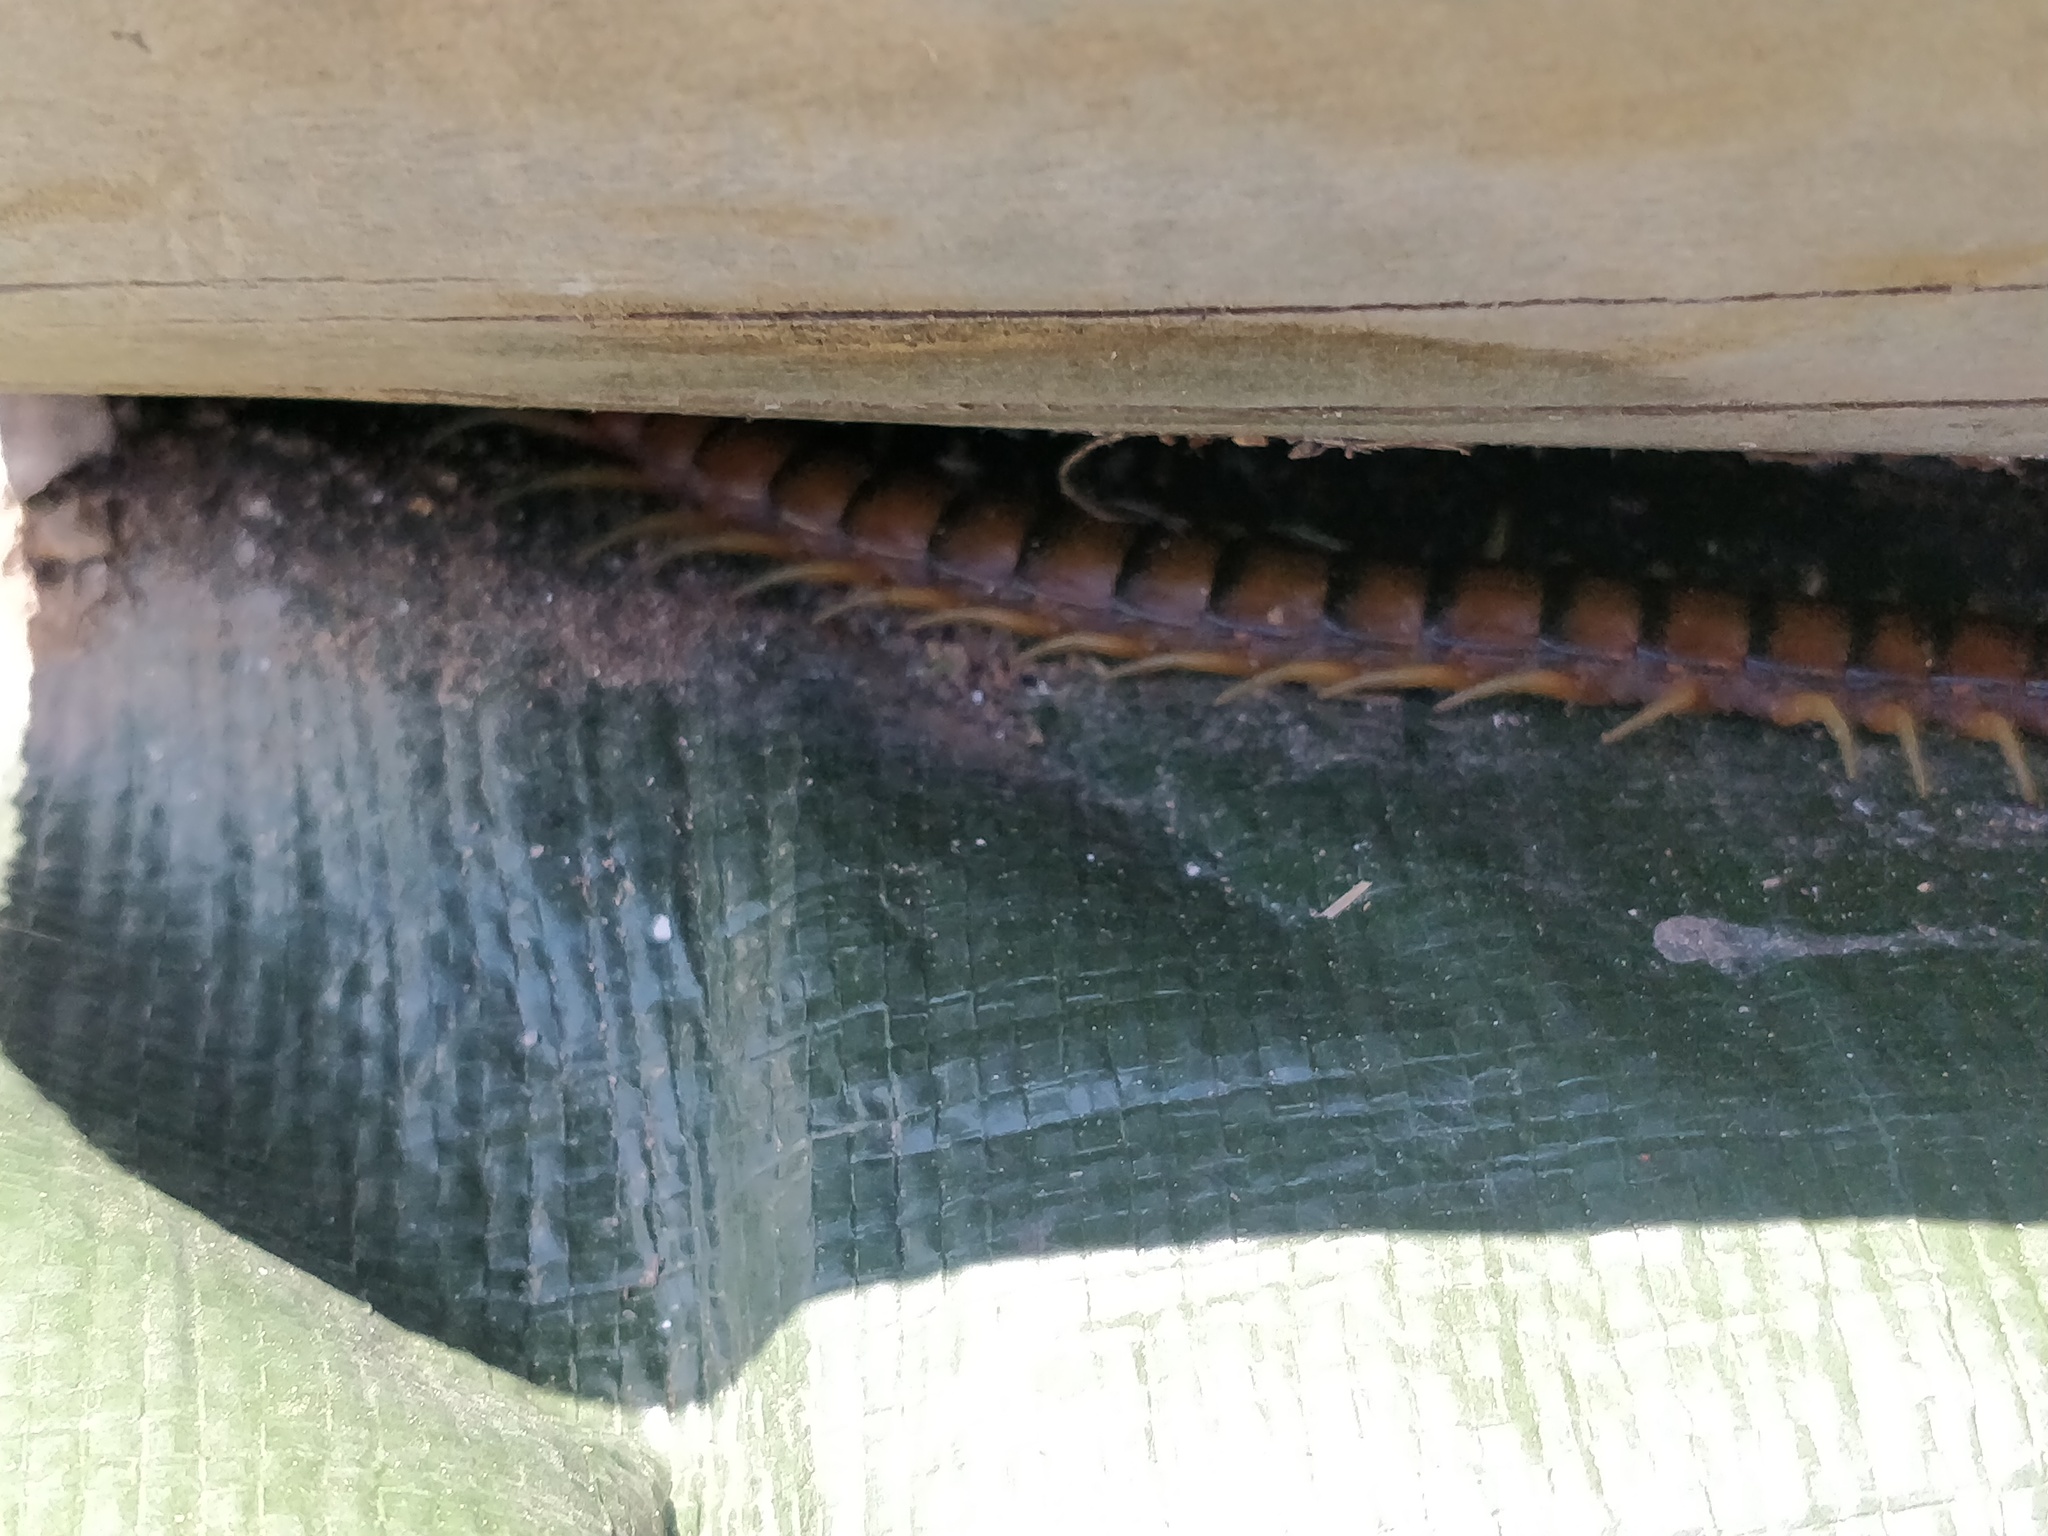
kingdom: Animalia
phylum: Arthropoda
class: Chilopoda
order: Scolopendromorpha
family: Scolopendridae
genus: Cormocephalus
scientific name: Cormocephalus aurantiipes
